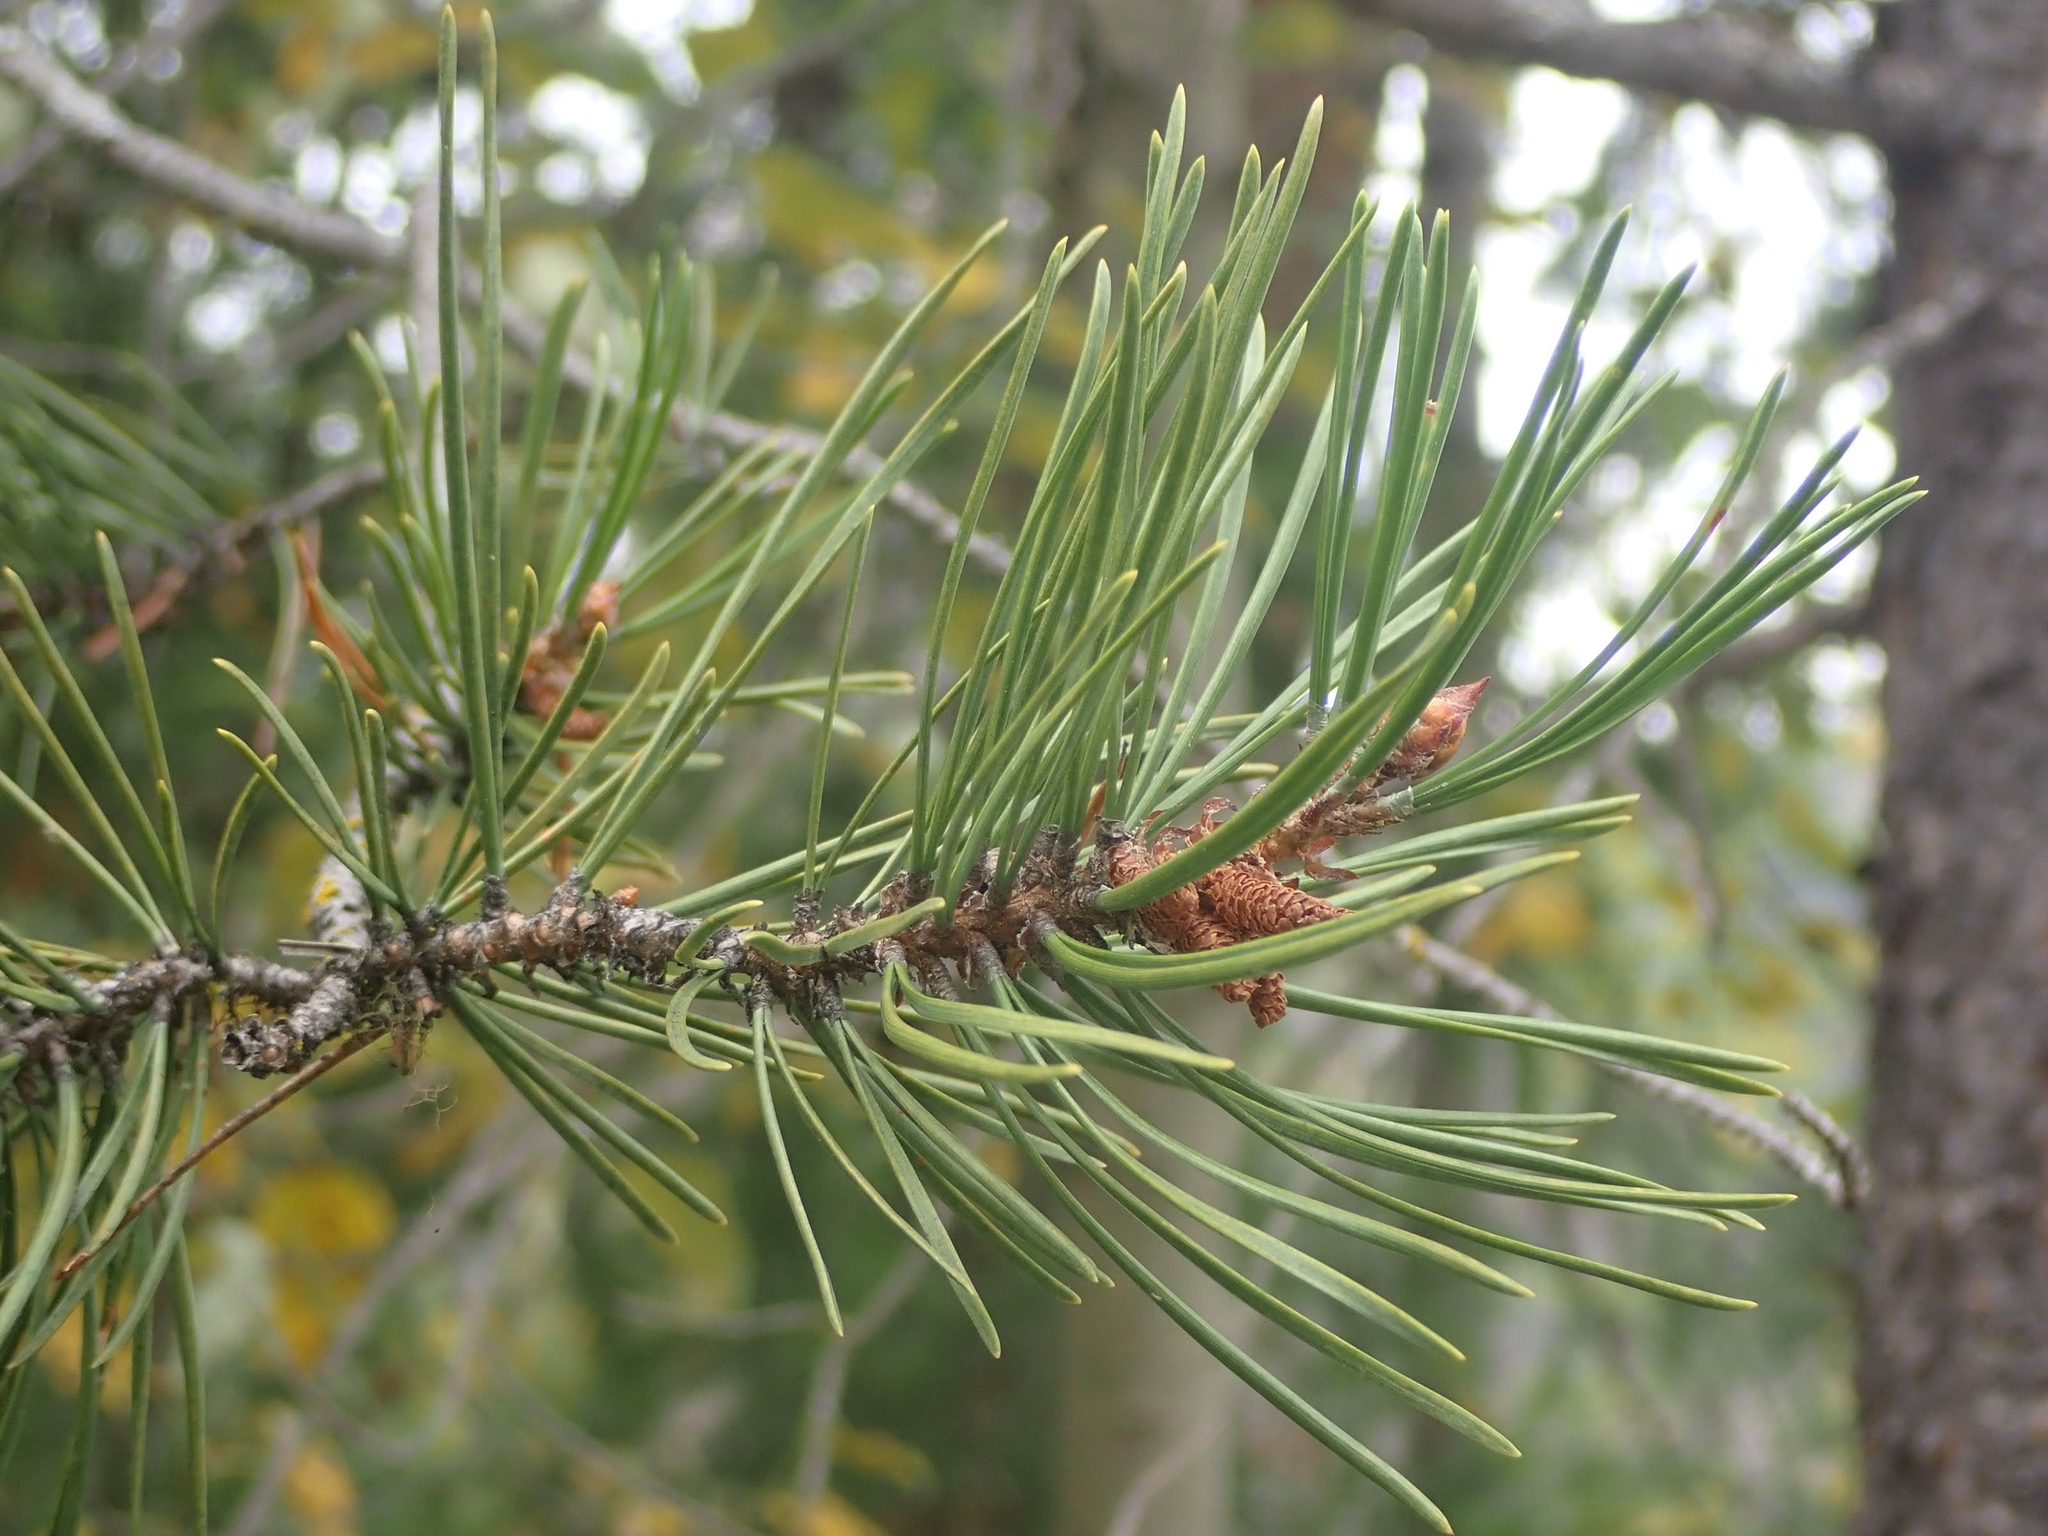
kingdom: Plantae
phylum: Tracheophyta
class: Pinopsida
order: Pinales
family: Pinaceae
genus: Pinus
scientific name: Pinus contorta
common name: Lodgepole pine
